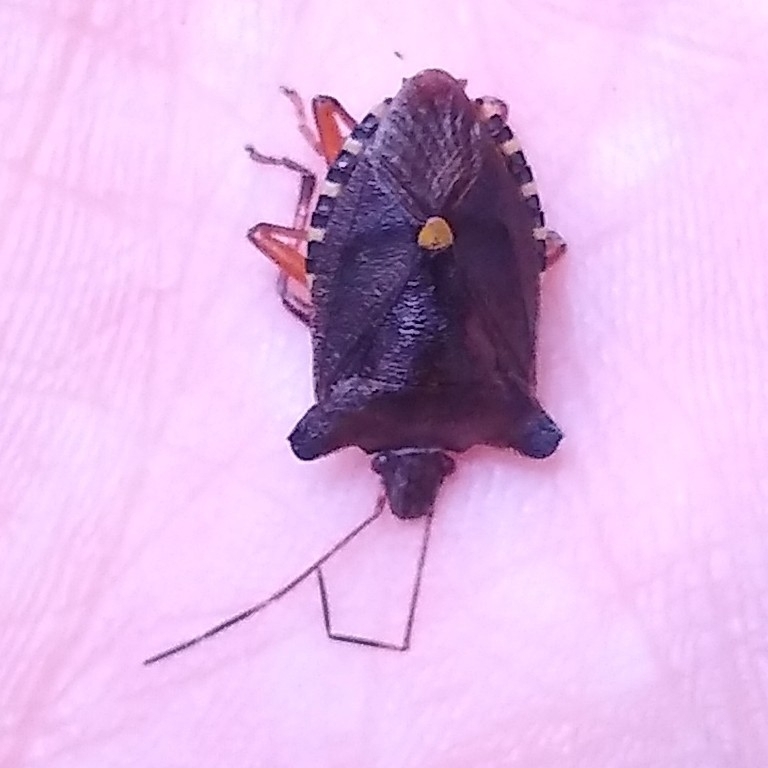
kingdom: Animalia
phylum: Arthropoda
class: Insecta
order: Hemiptera
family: Pentatomidae
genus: Pentatoma
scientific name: Pentatoma rufipes
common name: Forest bug
